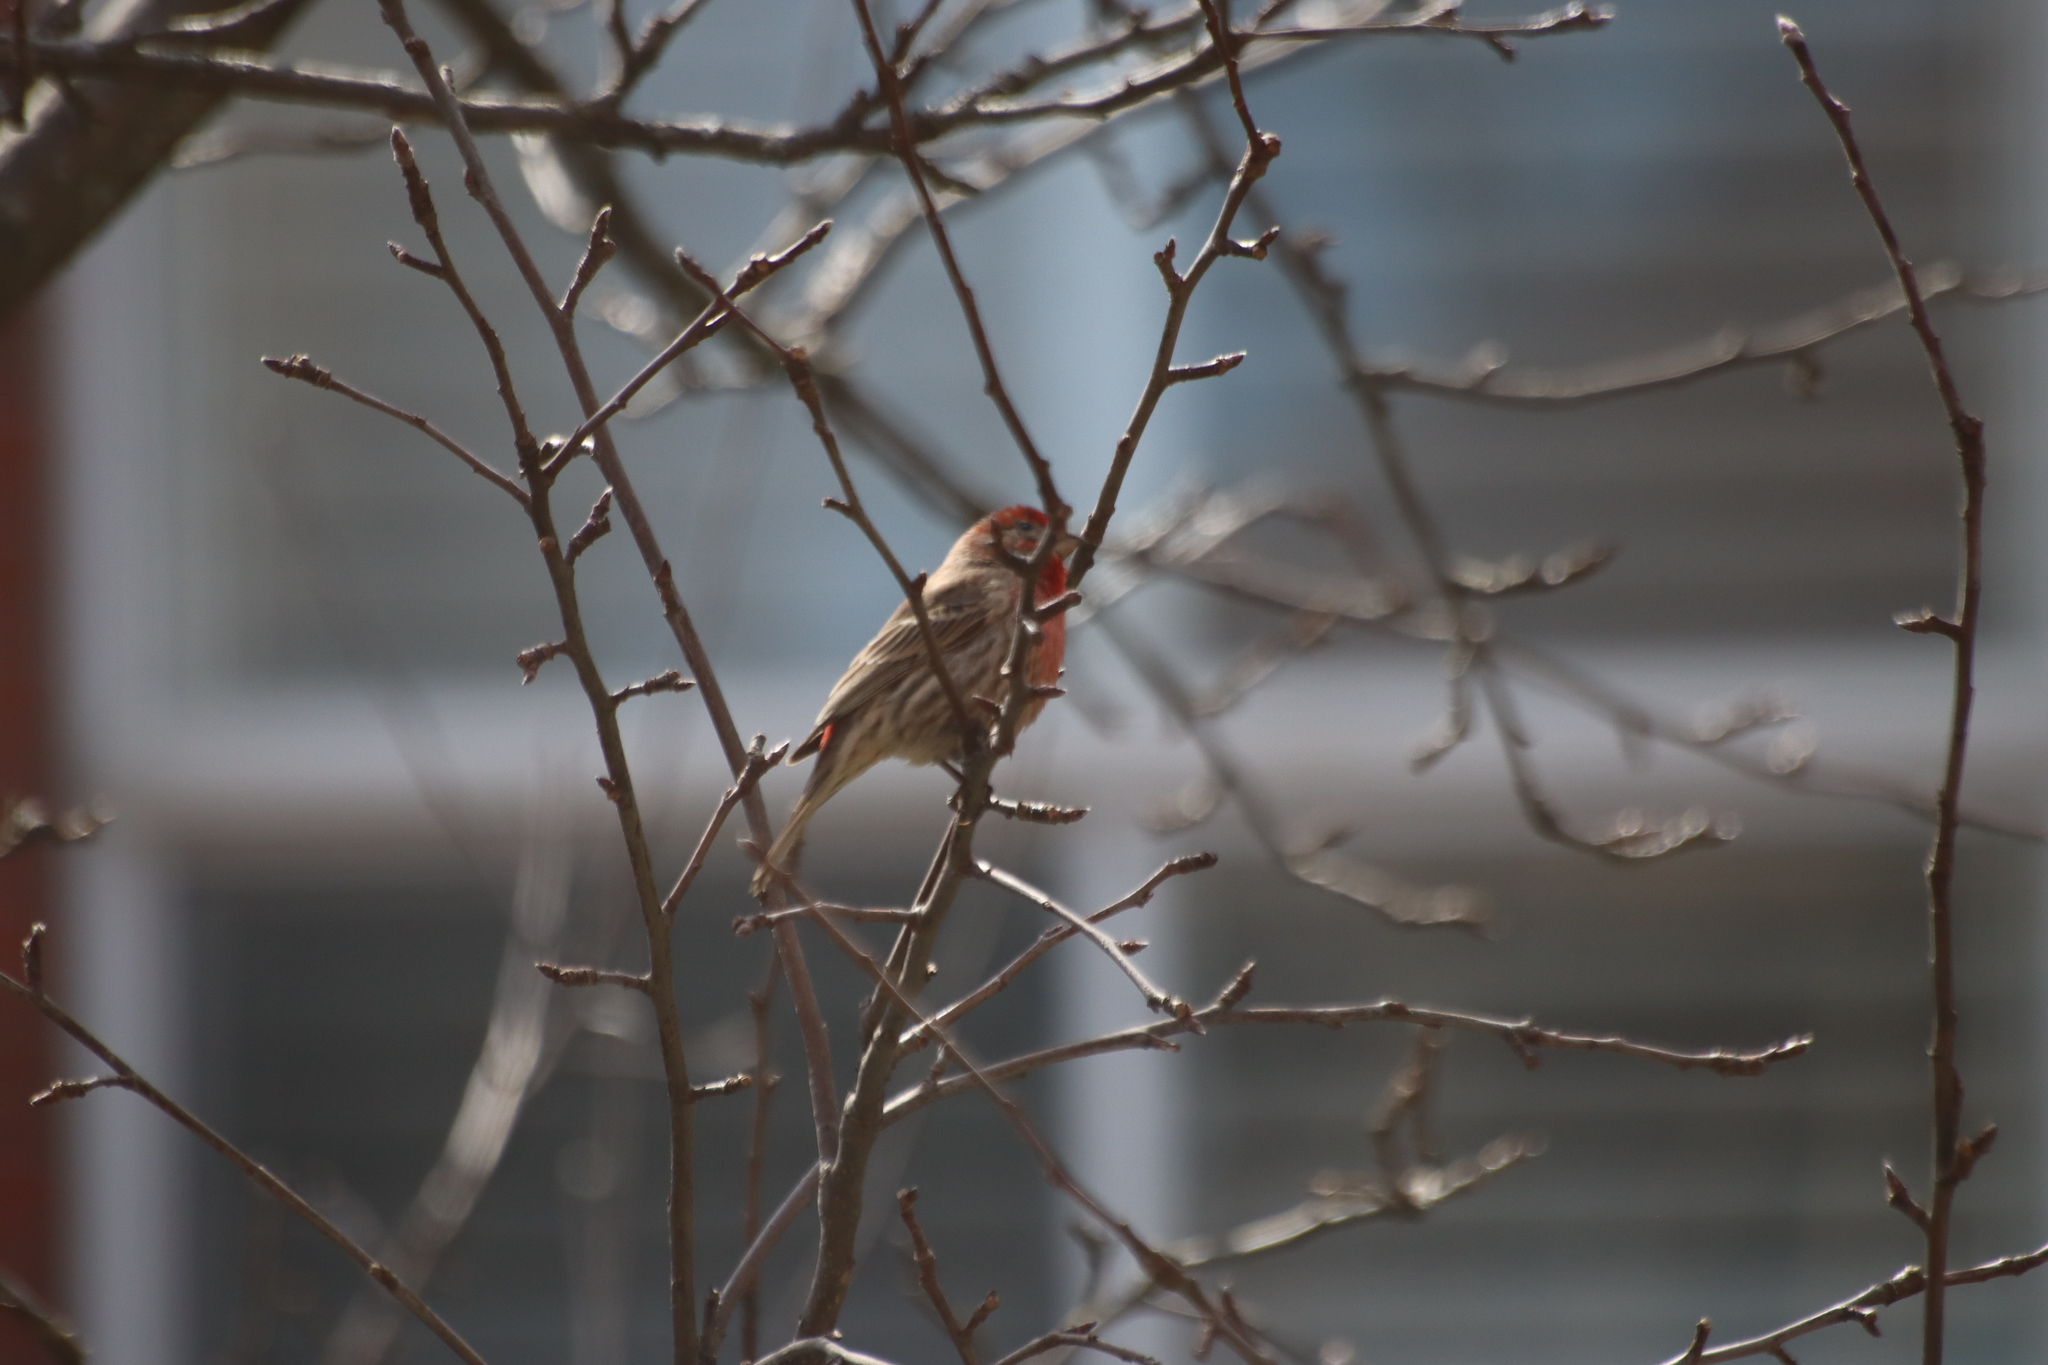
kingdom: Animalia
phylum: Chordata
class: Aves
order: Passeriformes
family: Fringillidae
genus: Haemorhous
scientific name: Haemorhous mexicanus
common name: House finch
